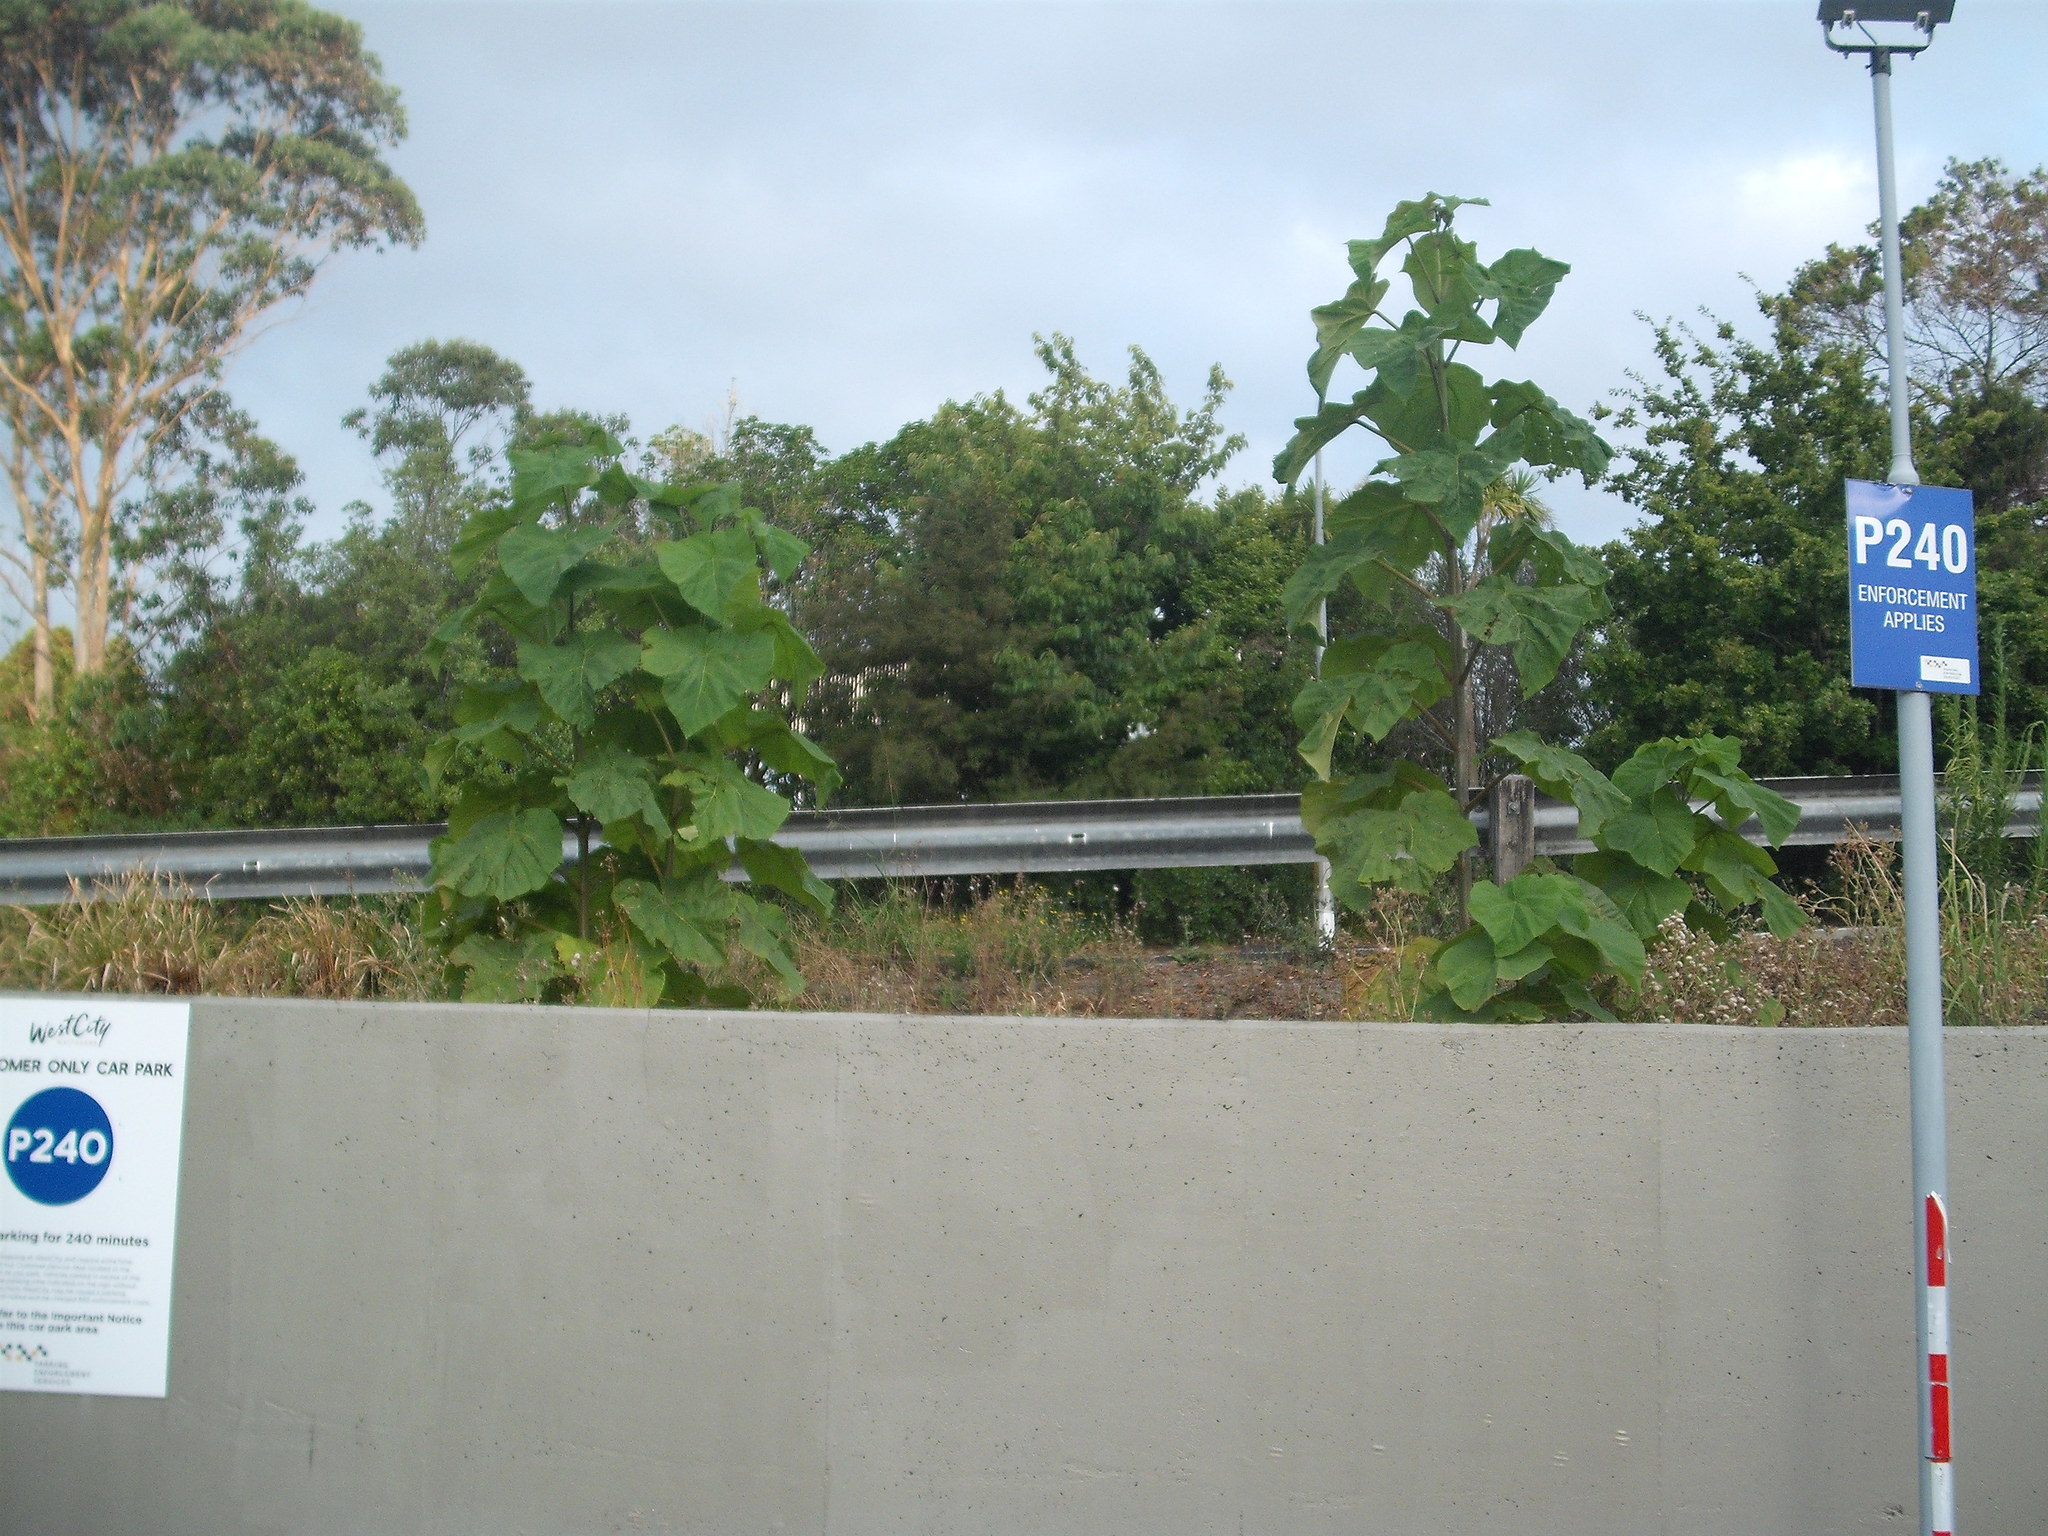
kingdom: Plantae
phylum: Tracheophyta
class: Magnoliopsida
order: Lamiales
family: Paulowniaceae
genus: Paulownia
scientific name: Paulownia tomentosa
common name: Foxglove-tree
